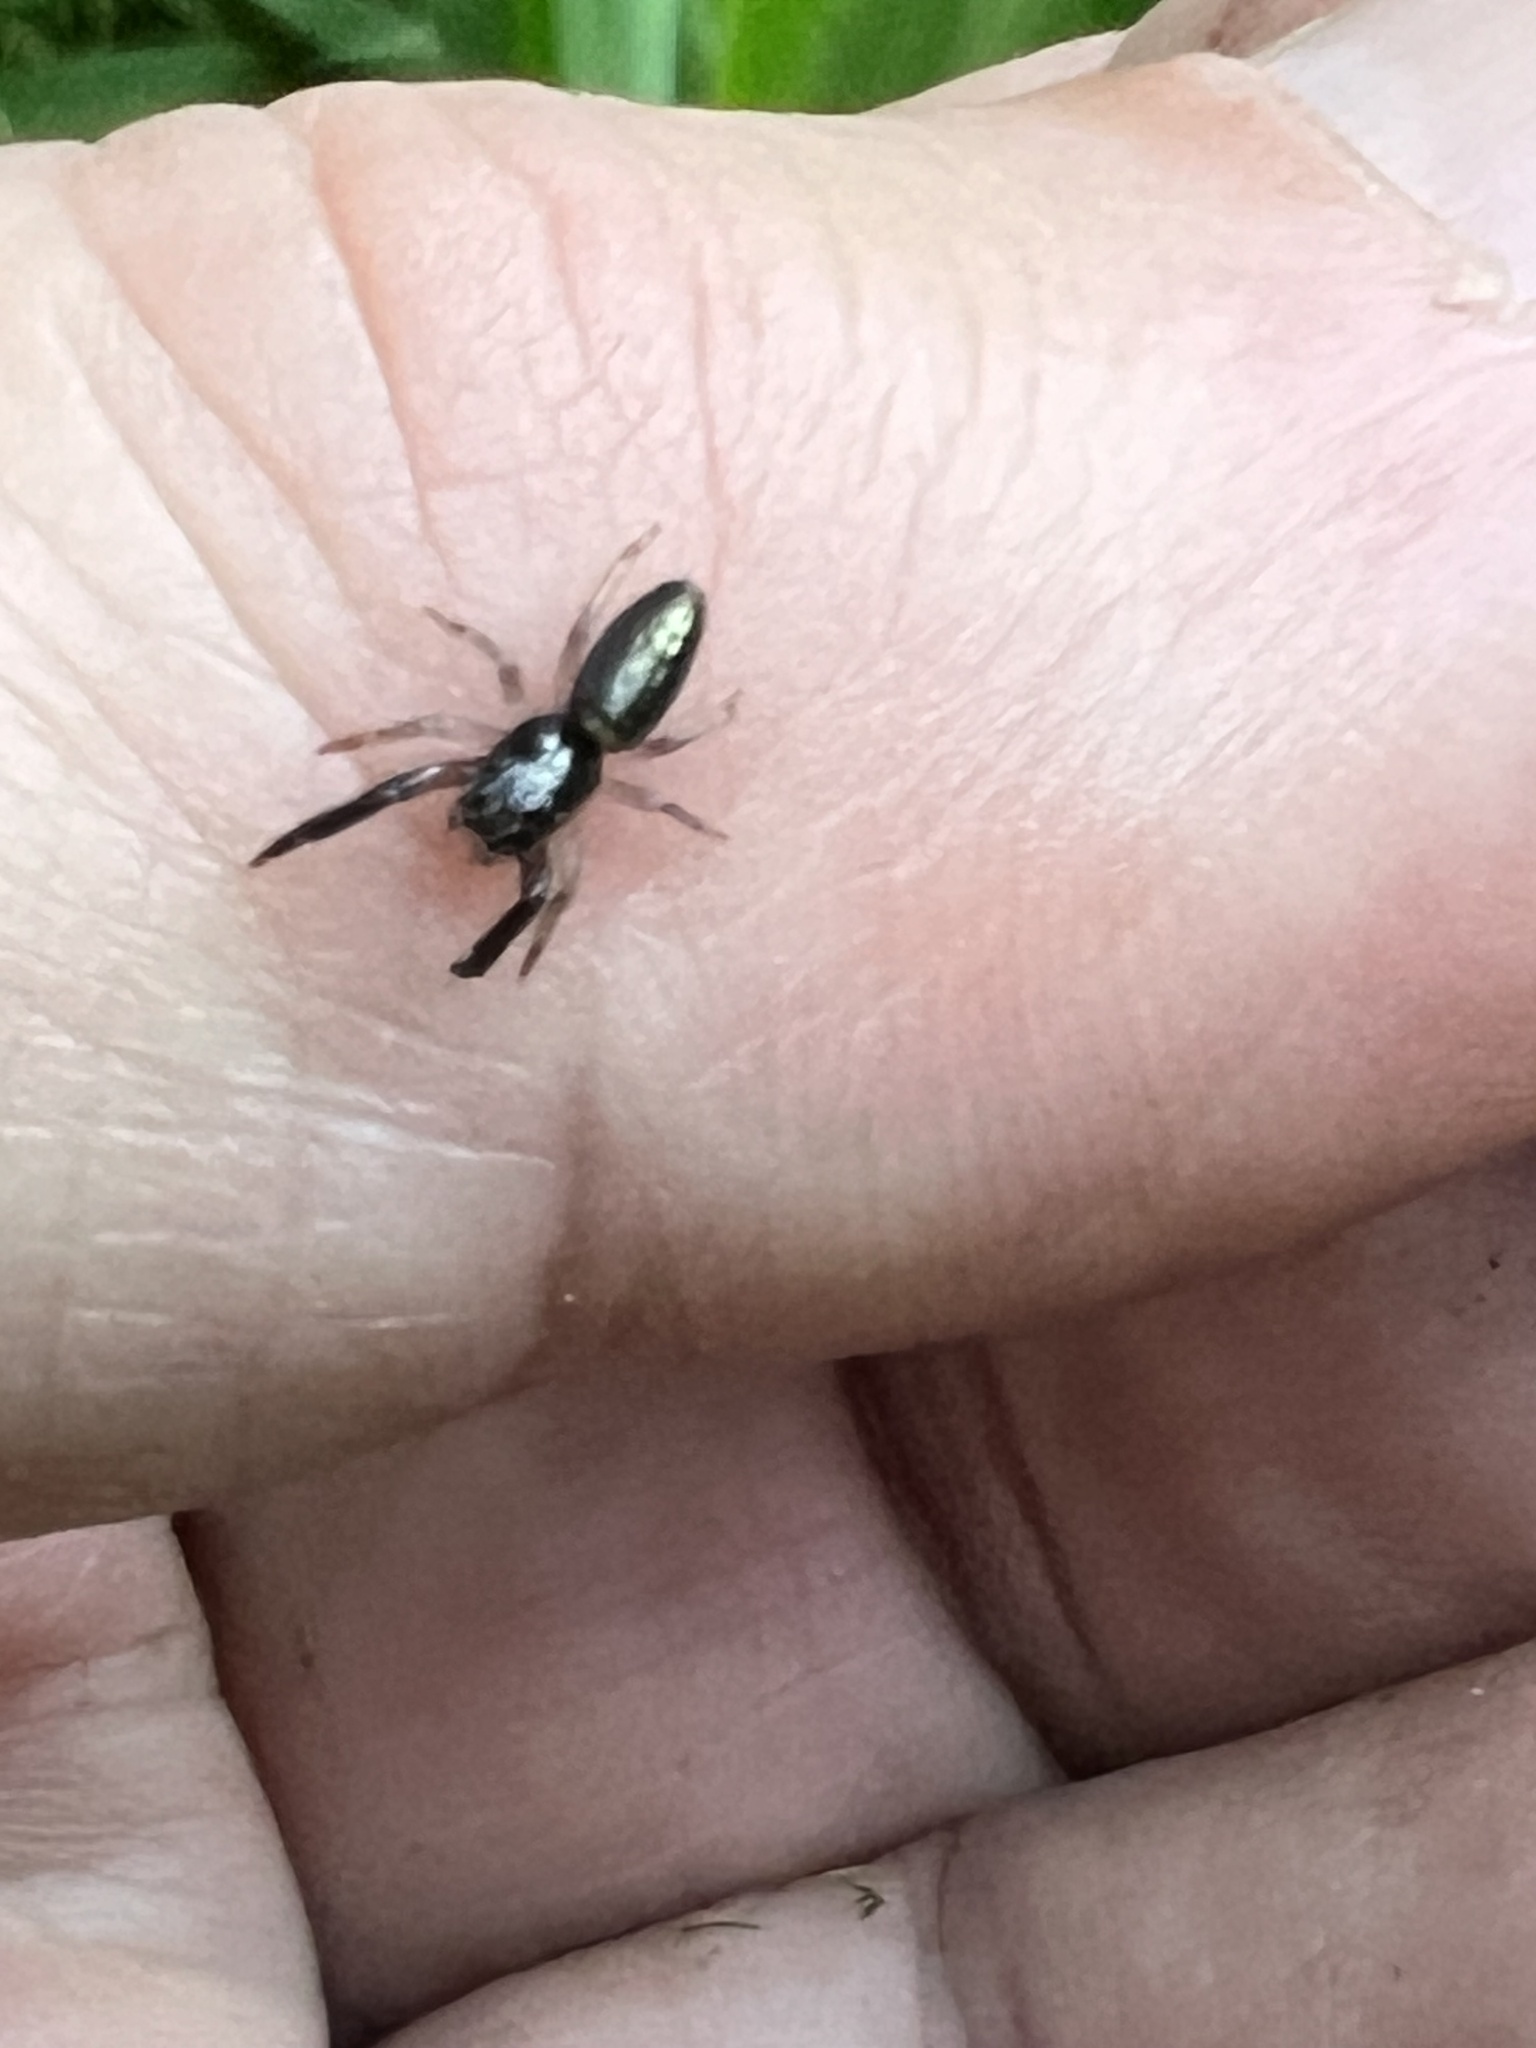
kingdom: Animalia
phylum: Arthropoda
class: Arachnida
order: Araneae
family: Salticidae
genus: Trite
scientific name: Trite planiceps
